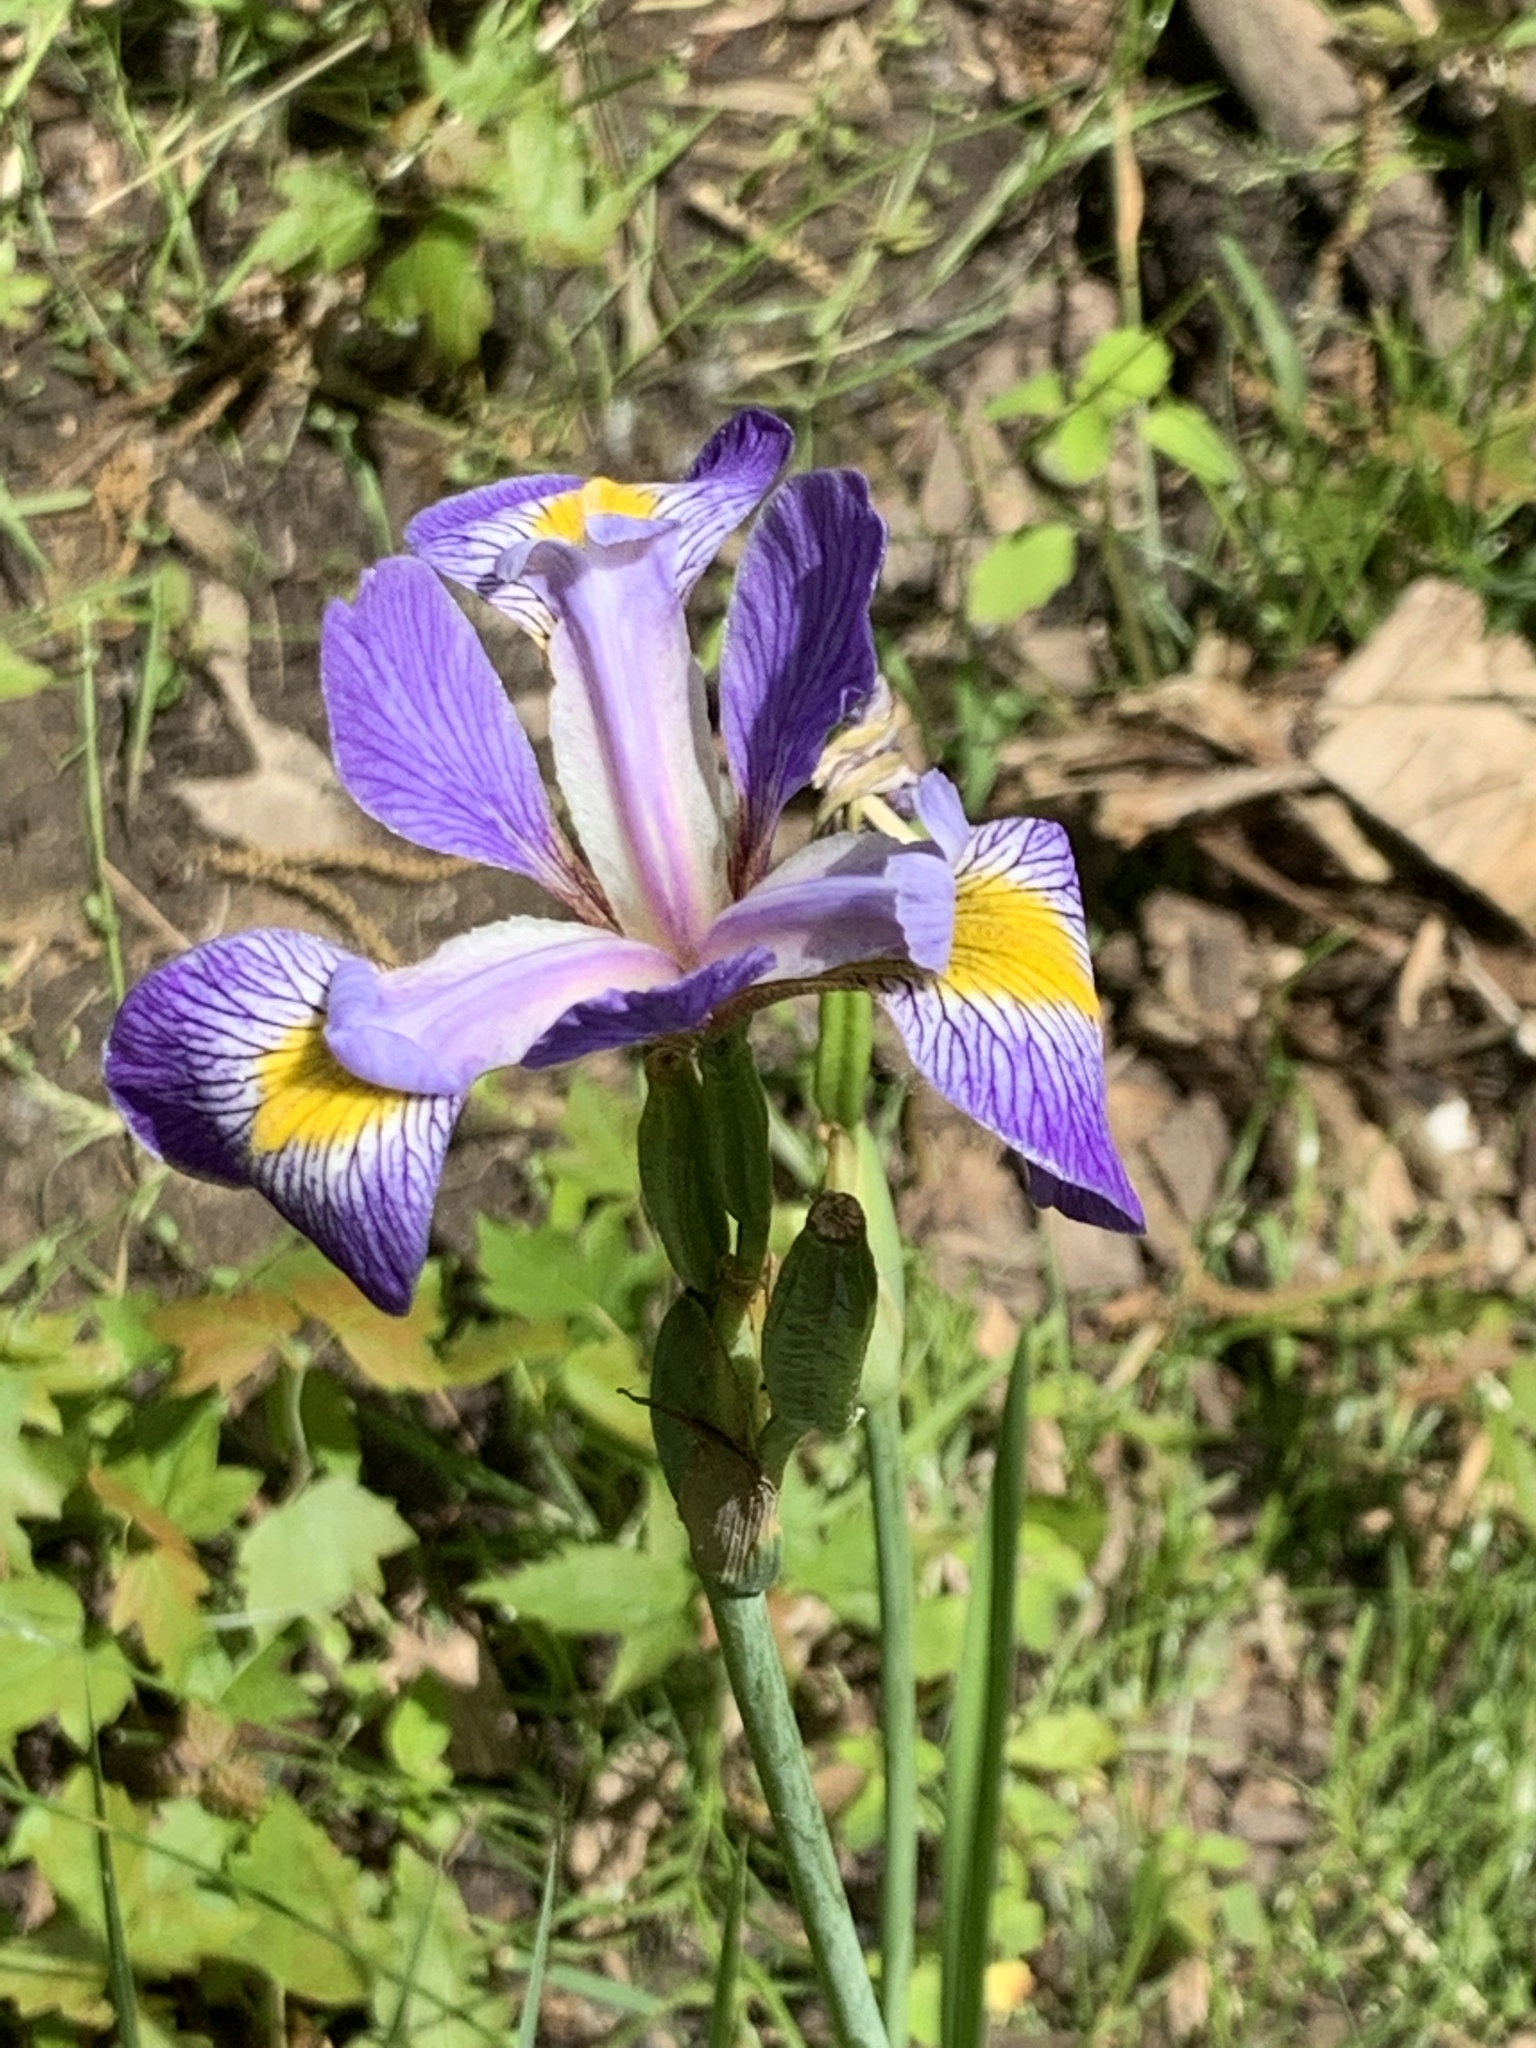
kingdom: Plantae
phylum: Tracheophyta
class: Liliopsida
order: Asparagales
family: Iridaceae
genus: Iris
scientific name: Iris versicolor
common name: Purple iris
